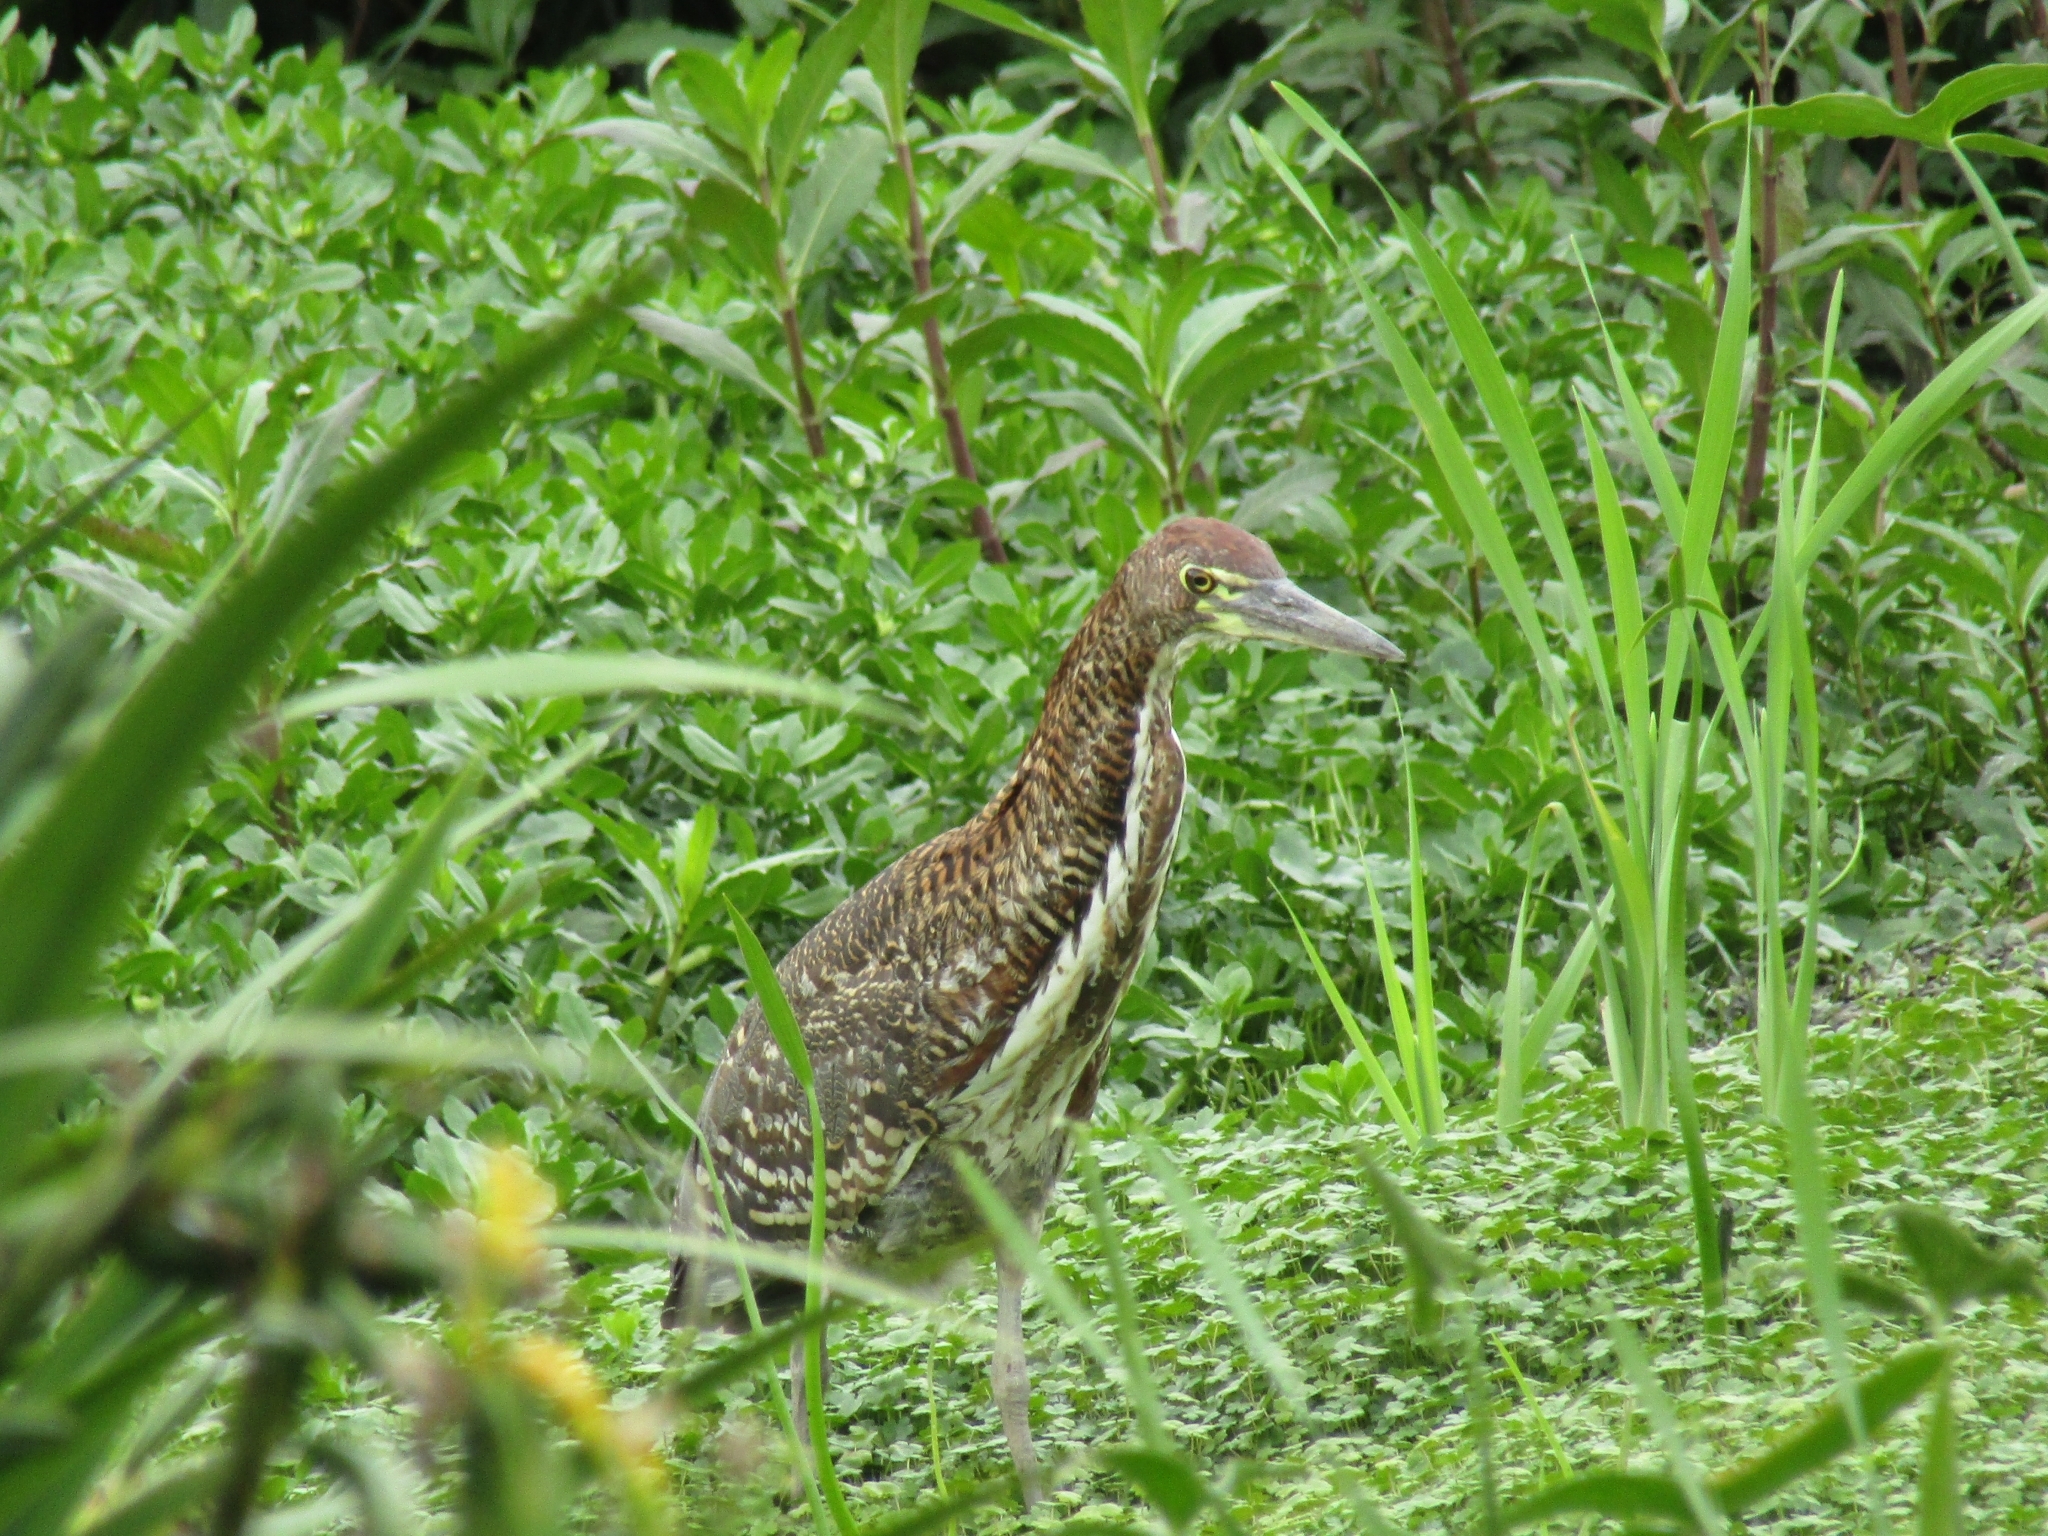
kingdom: Animalia
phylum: Chordata
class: Aves
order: Pelecaniformes
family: Ardeidae
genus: Tigrisoma
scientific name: Tigrisoma lineatum
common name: Rufescent tiger-heron
